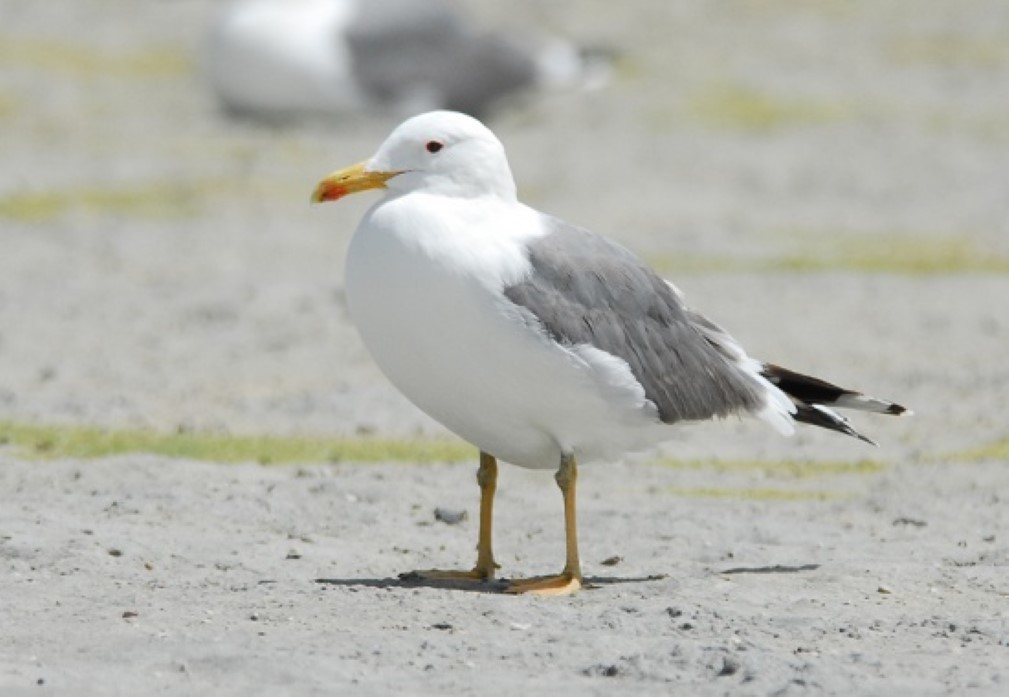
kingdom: Animalia
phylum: Chordata
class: Aves
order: Charadriiformes
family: Laridae
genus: Larus
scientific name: Larus michahellis
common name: Yellow-legged gull
